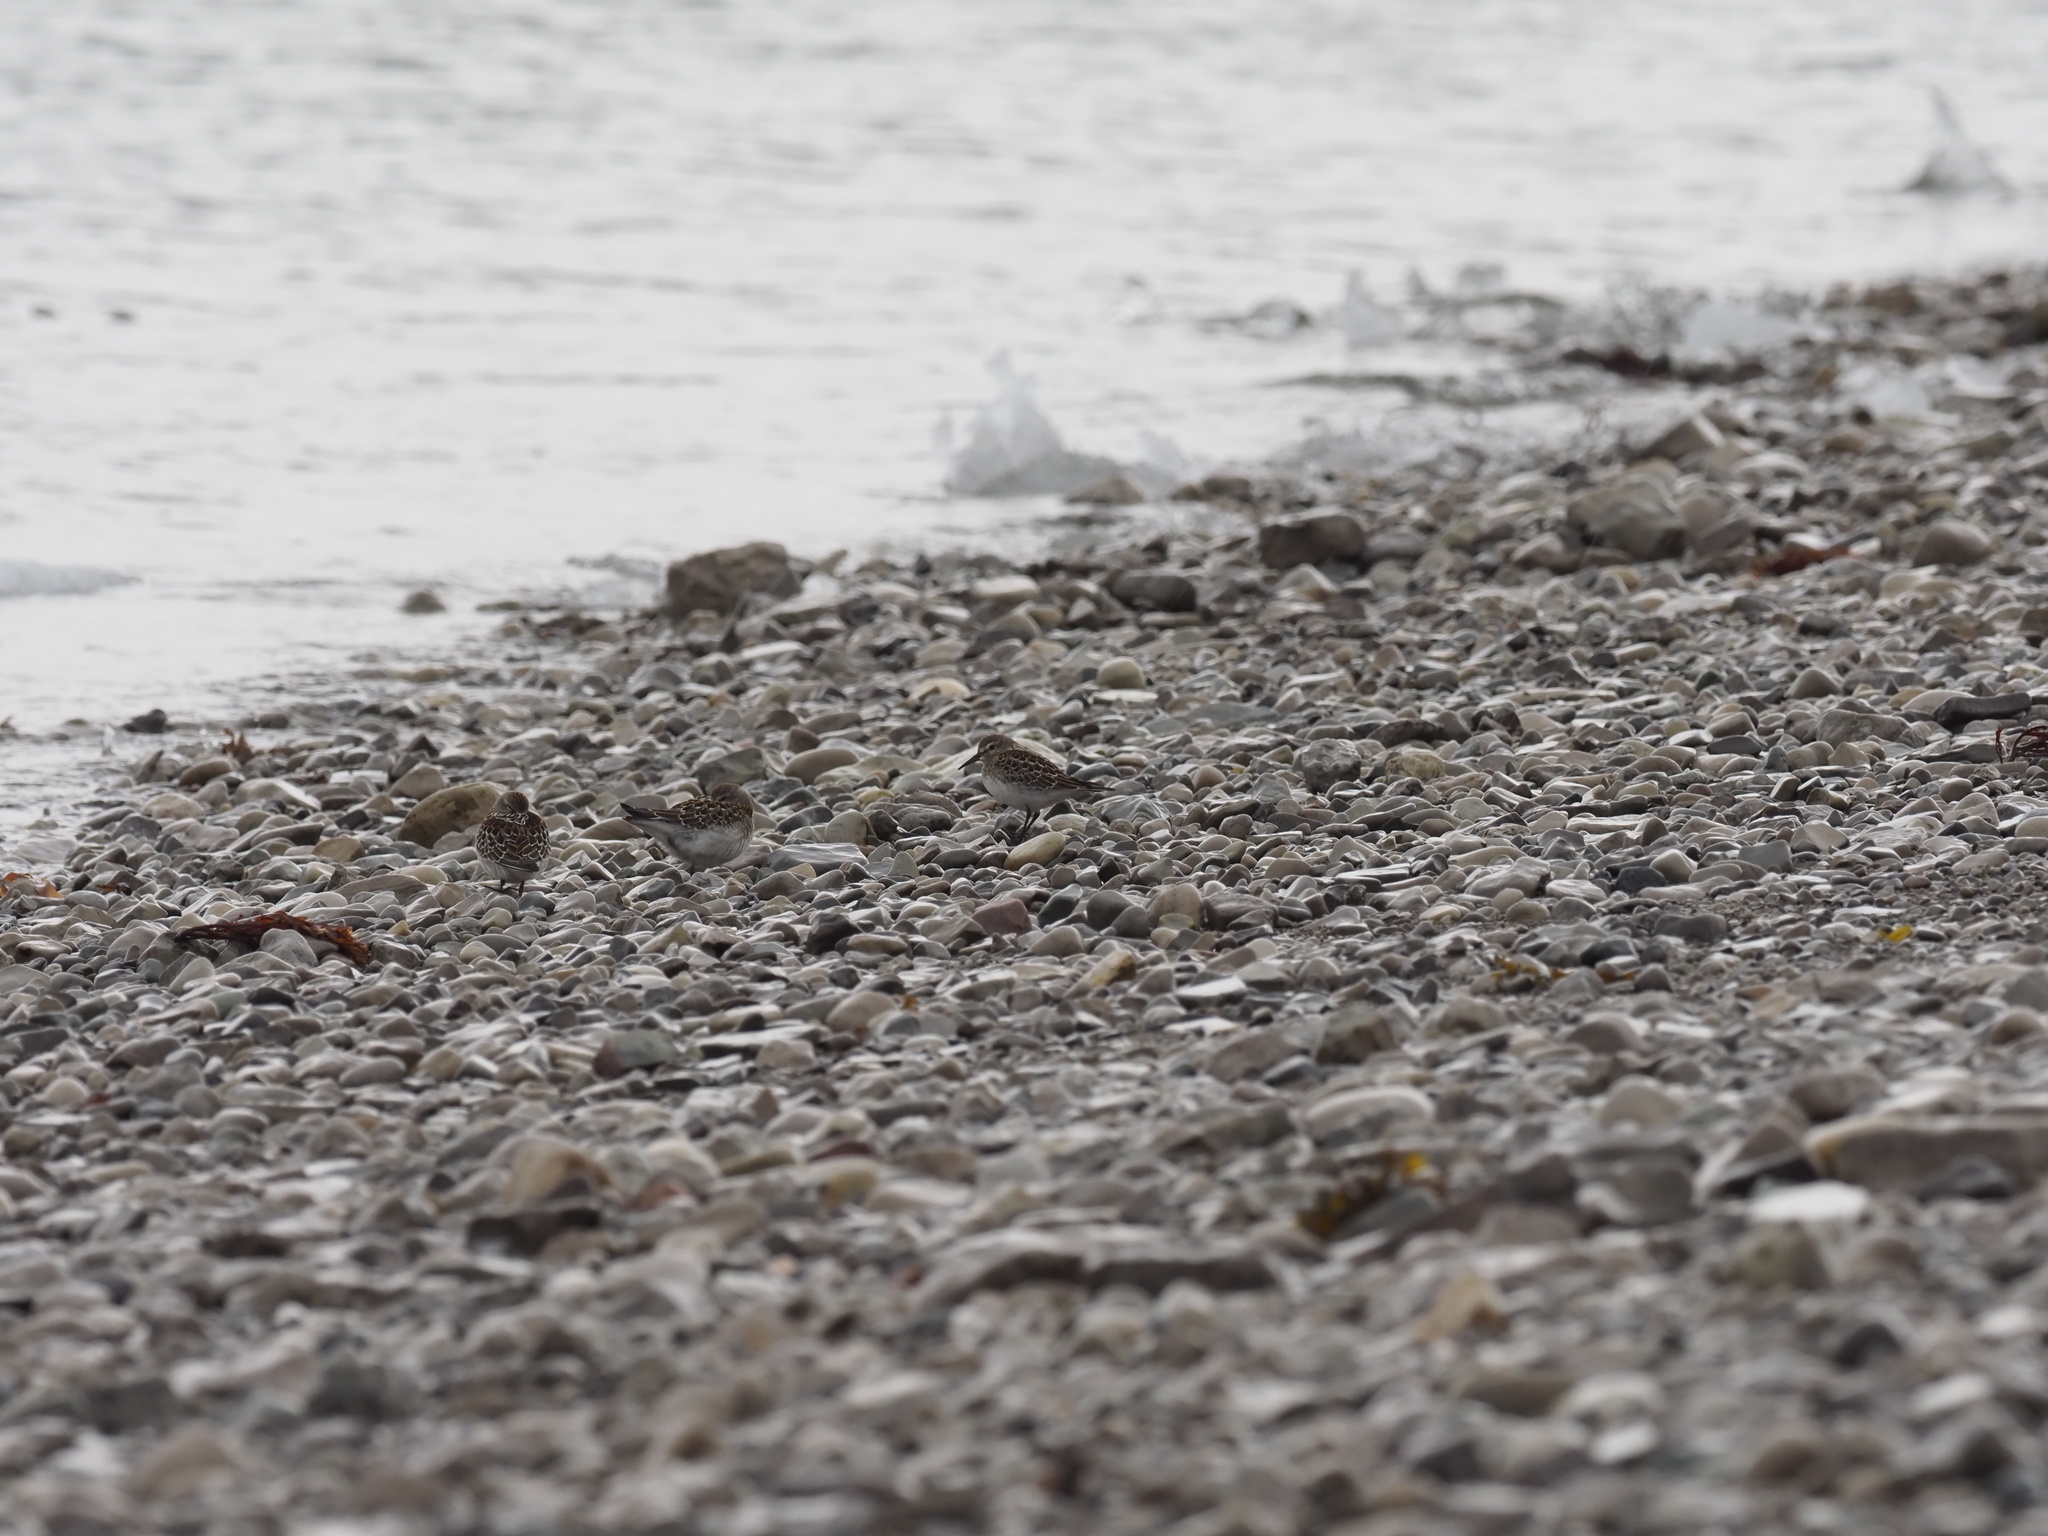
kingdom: Animalia
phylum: Chordata
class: Aves
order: Charadriiformes
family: Scolopacidae
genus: Calidris
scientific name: Calidris fuscicollis
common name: White-rumped sandpiper
